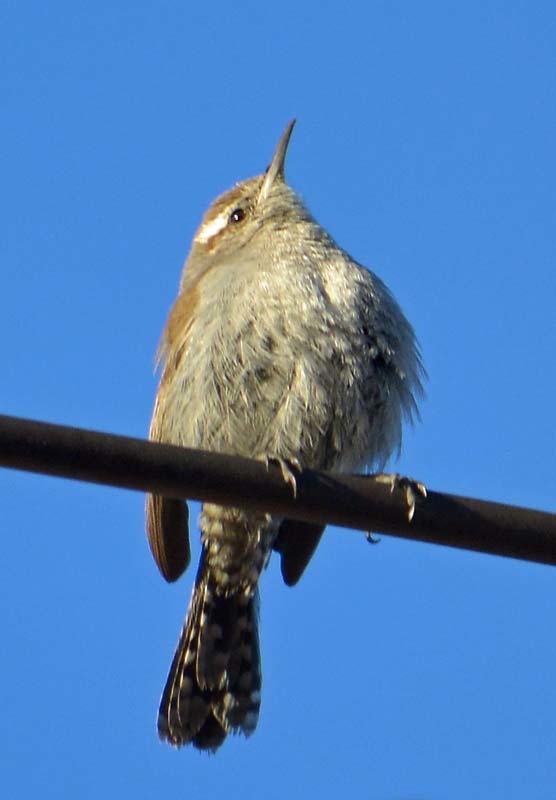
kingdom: Animalia
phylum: Chordata
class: Aves
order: Passeriformes
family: Troglodytidae
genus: Thryomanes
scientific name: Thryomanes bewickii
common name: Bewick's wren
